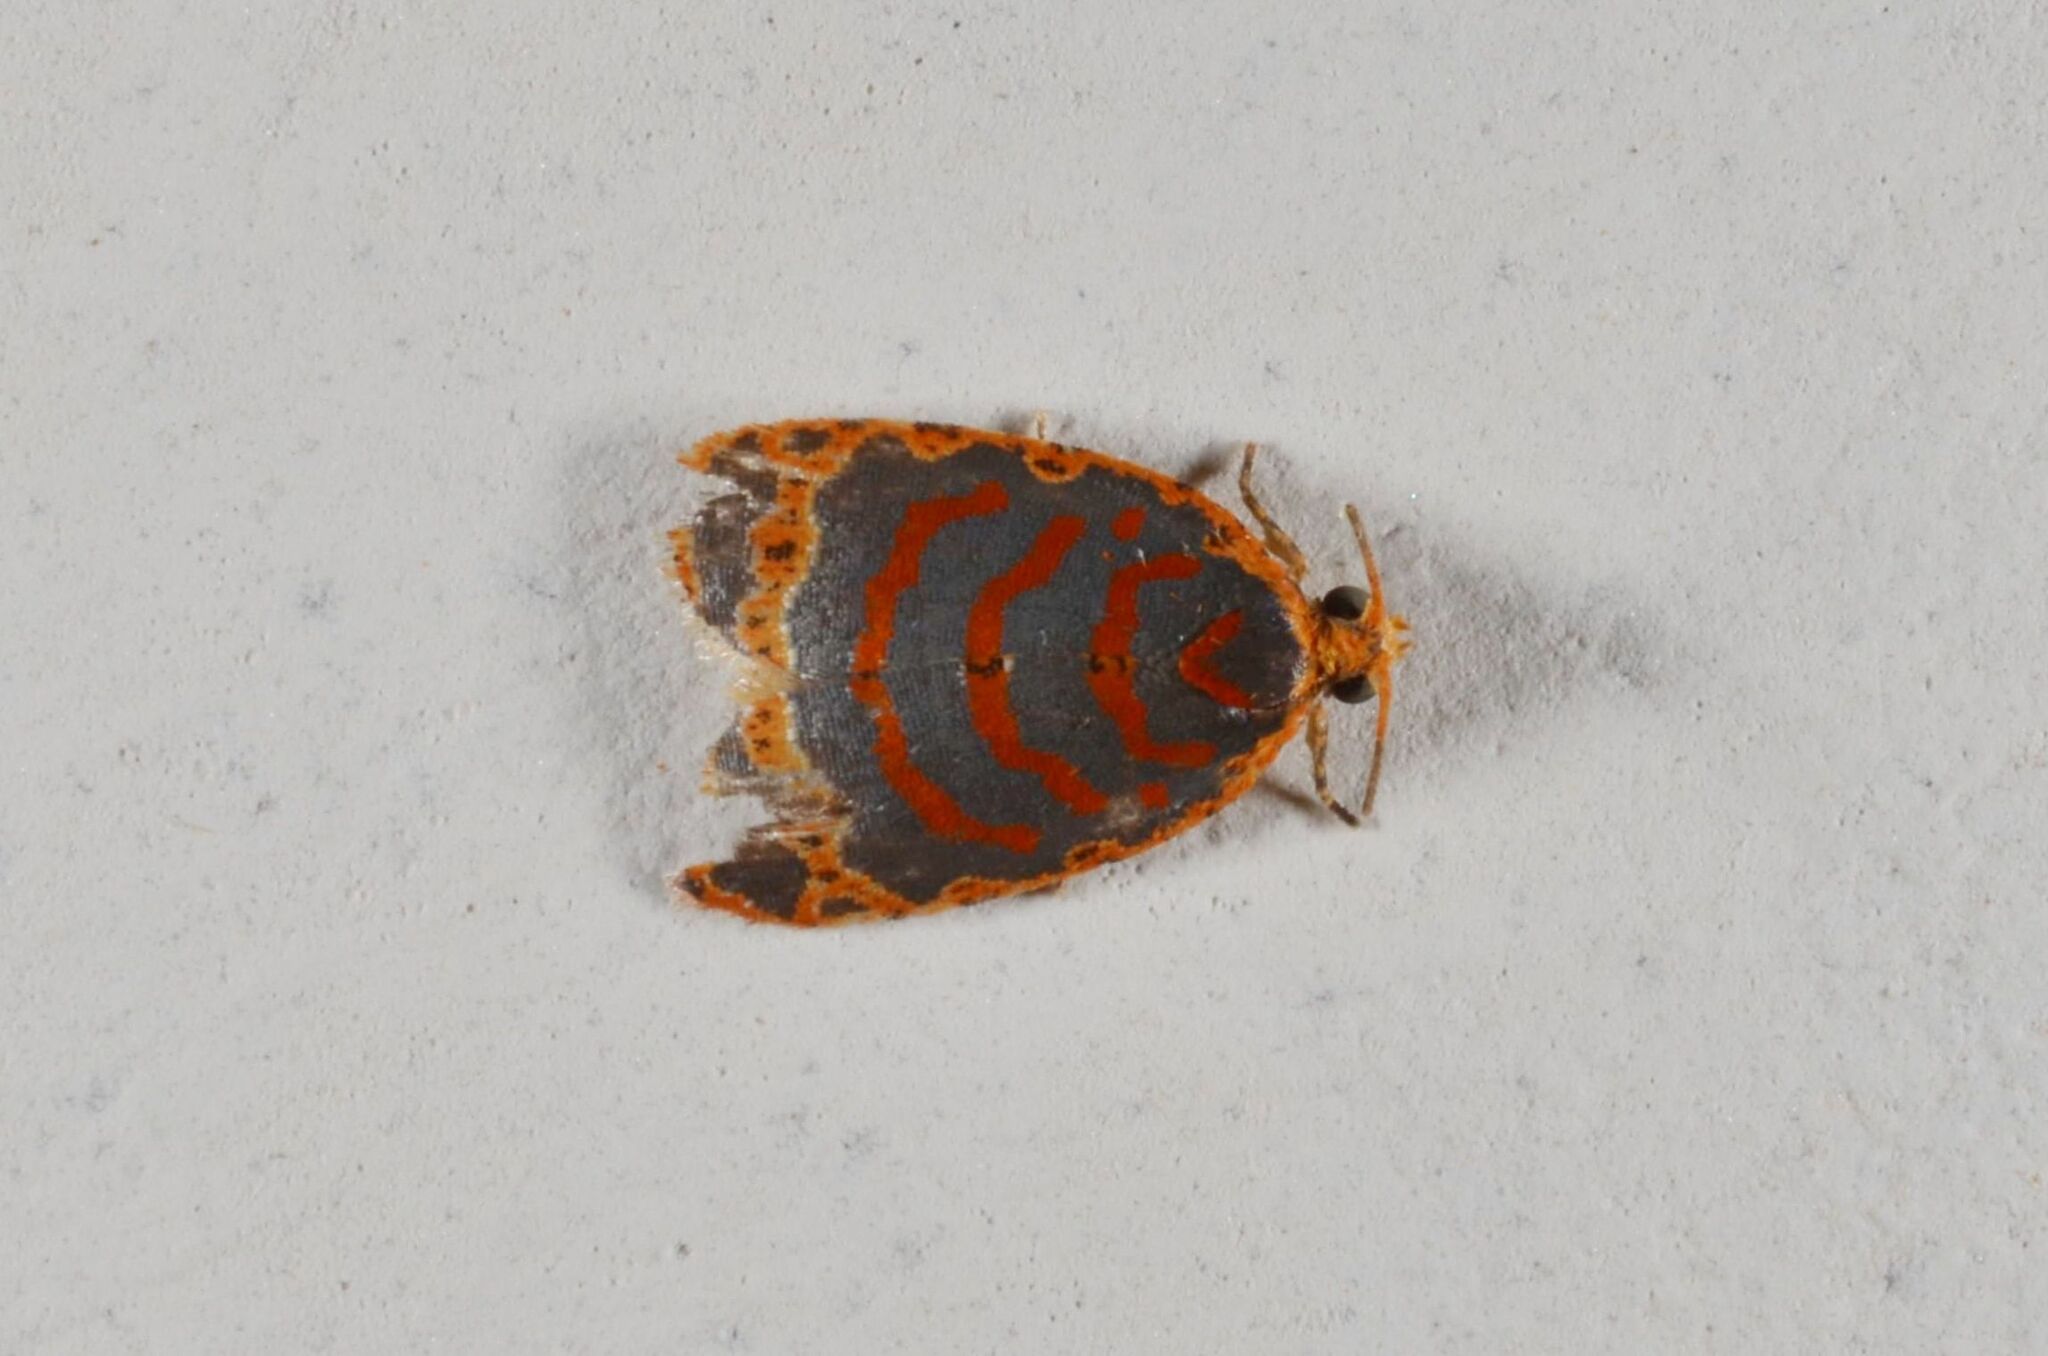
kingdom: Animalia
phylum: Arthropoda
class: Insecta
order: Lepidoptera
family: Tortricidae
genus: Archigraptis
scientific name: Archigraptis chrysodema
